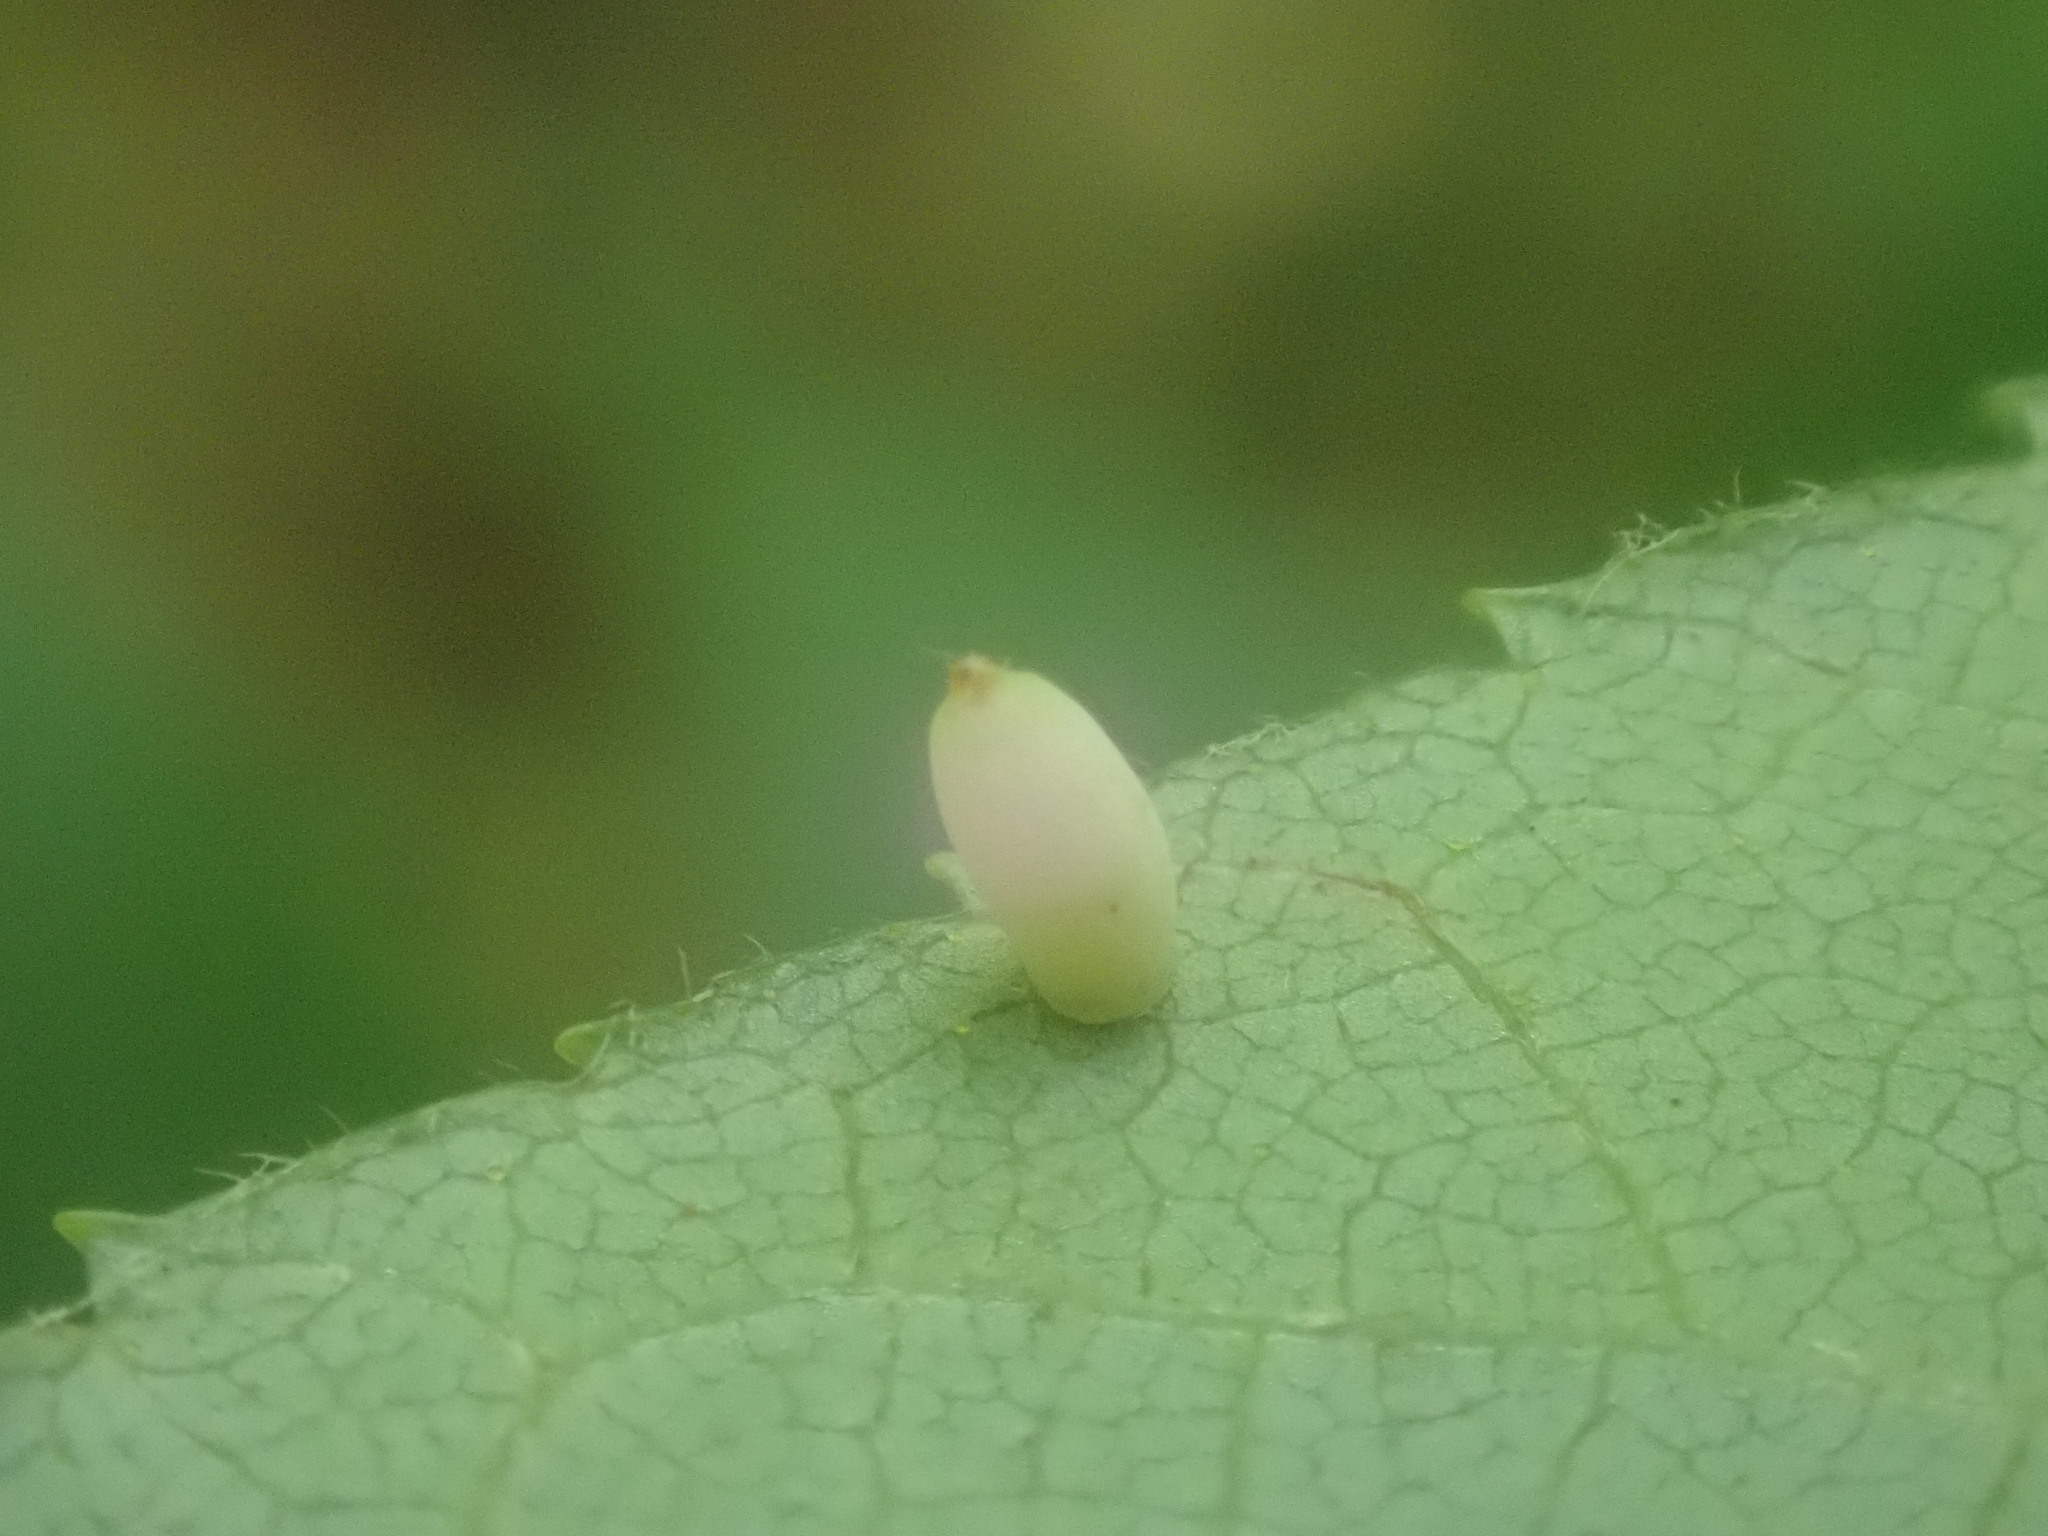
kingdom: Animalia
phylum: Arthropoda
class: Insecta
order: Diptera
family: Cecidomyiidae
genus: Caryomyia
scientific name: Caryomyia urnula
